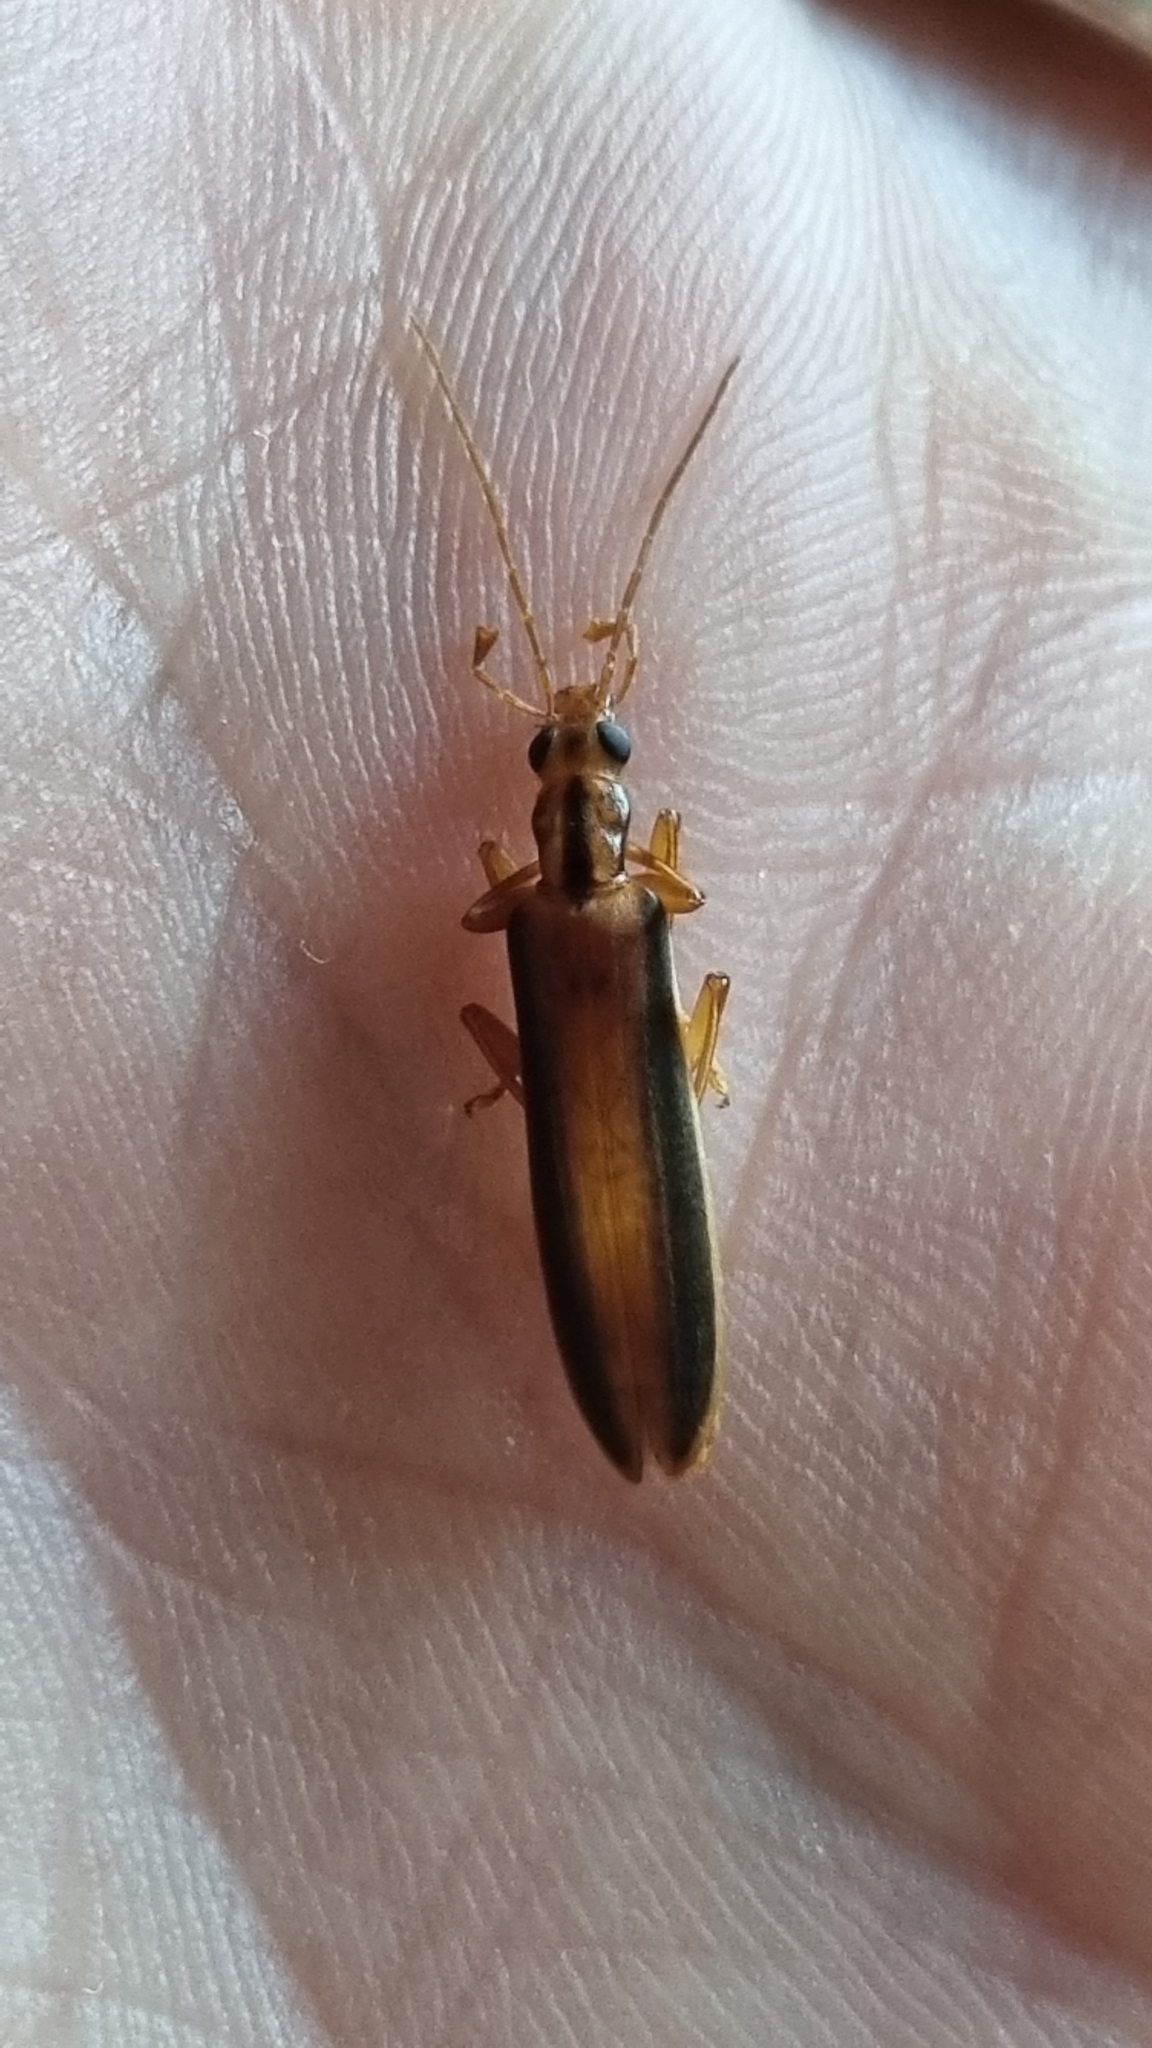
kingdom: Animalia
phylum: Arthropoda
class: Insecta
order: Coleoptera
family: Oedemeridae
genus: Thelyphassa
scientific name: Thelyphassa
